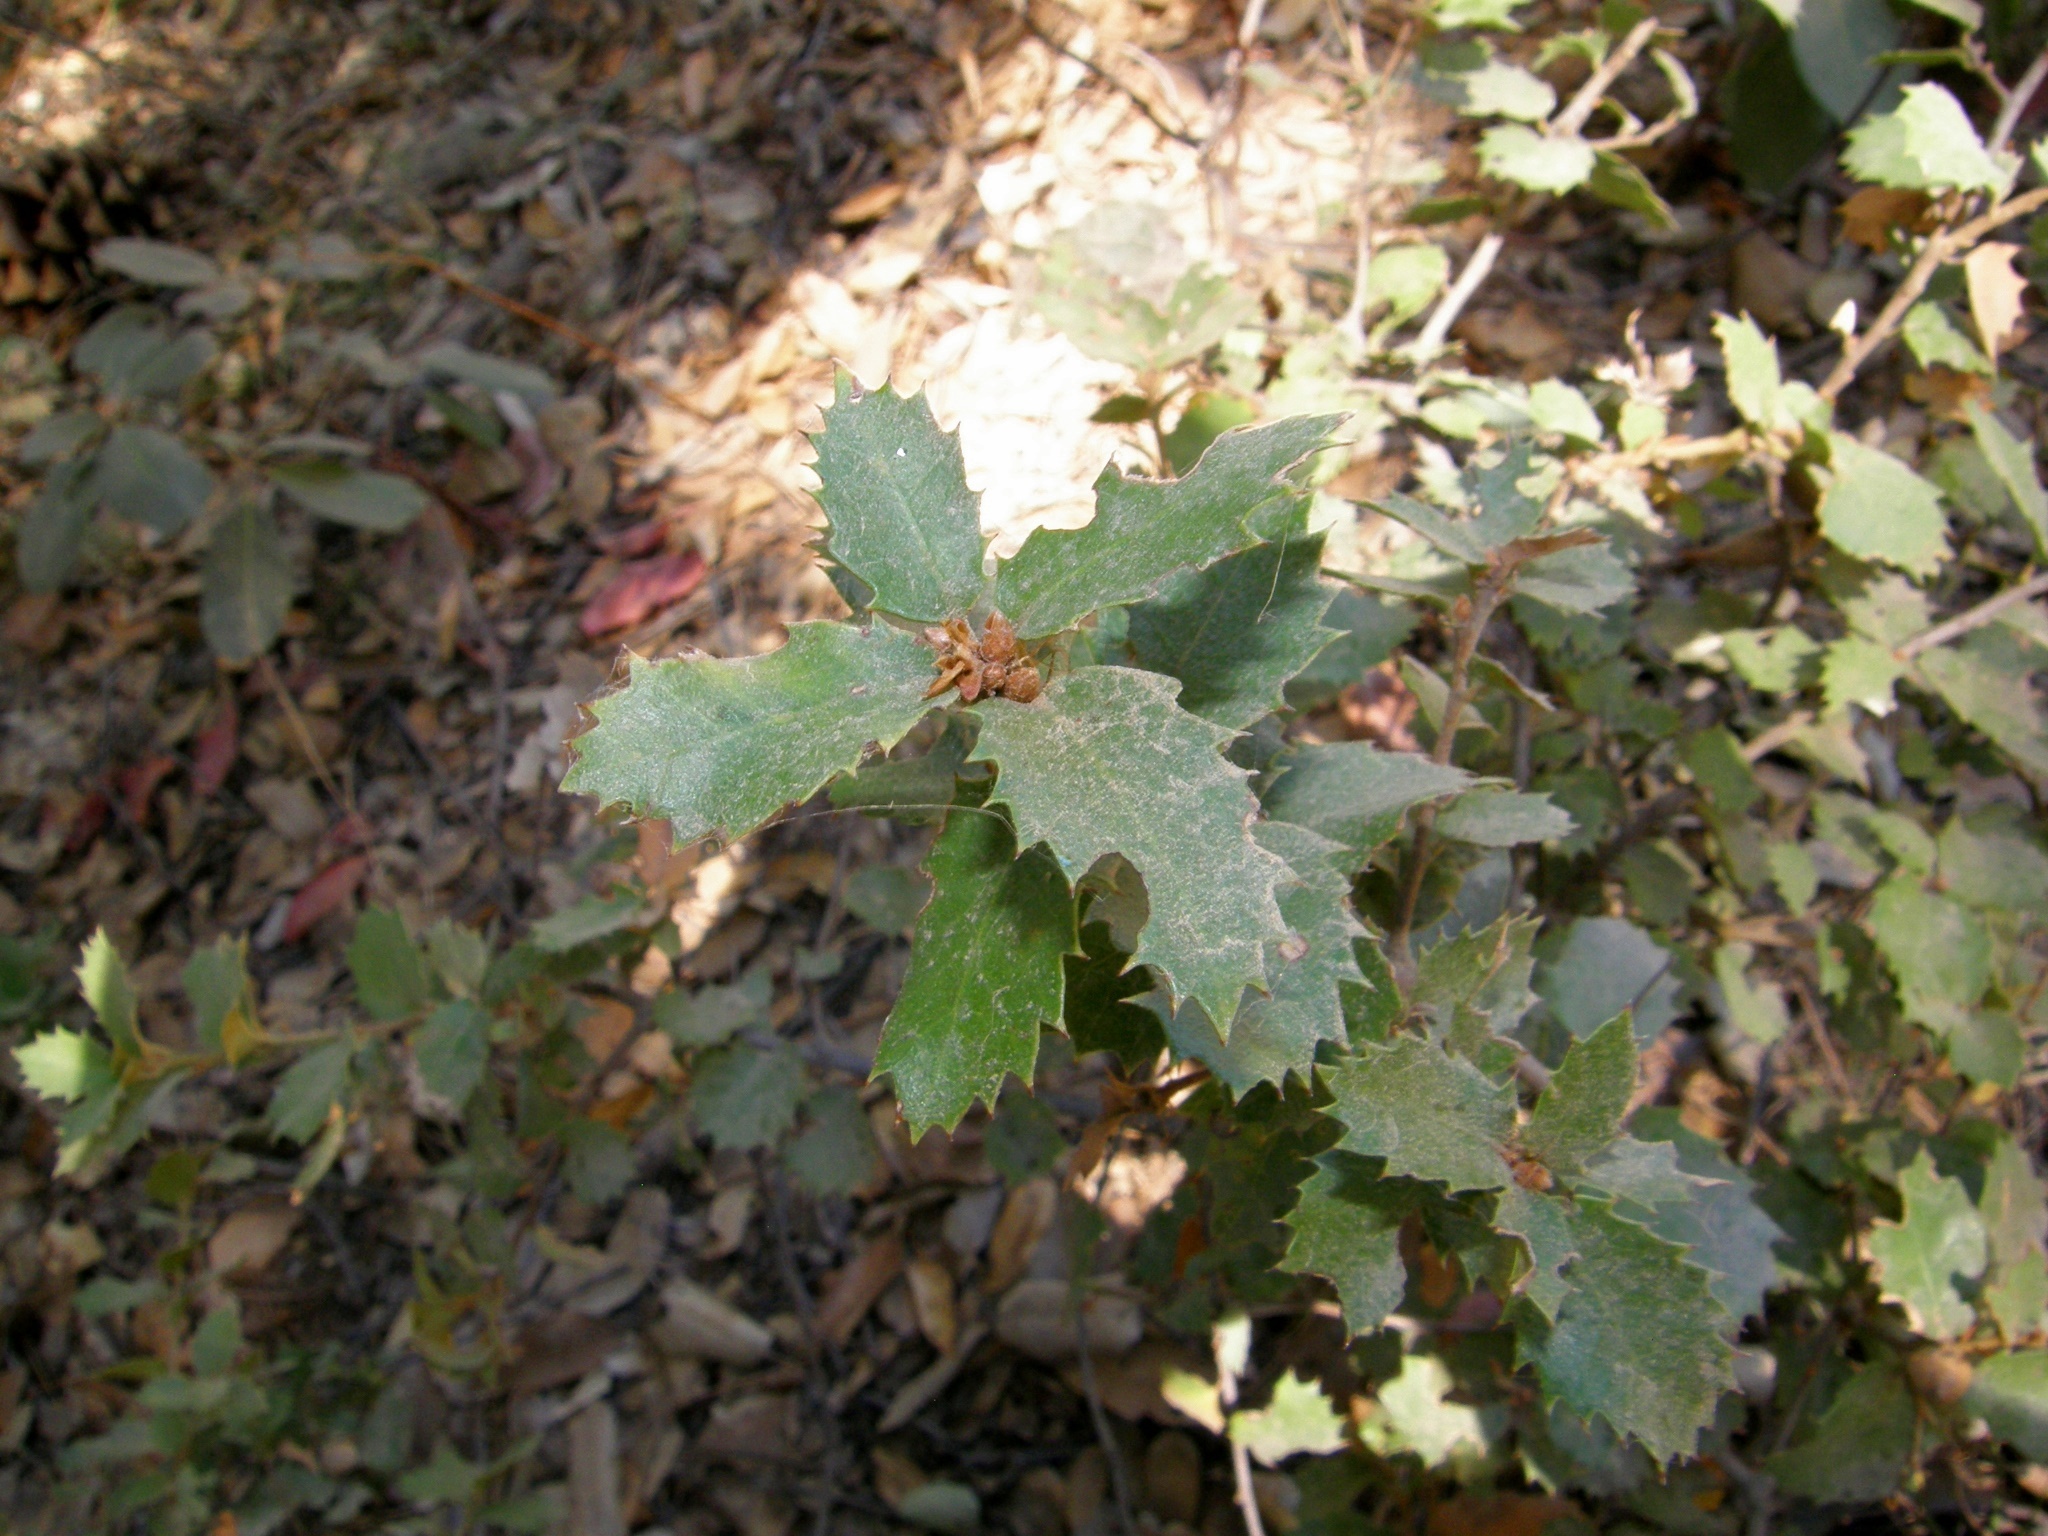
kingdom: Plantae
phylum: Tracheophyta
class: Magnoliopsida
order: Fagales
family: Fagaceae
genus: Quercus
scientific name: Quercus chrysolepis
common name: Canyon live oak
